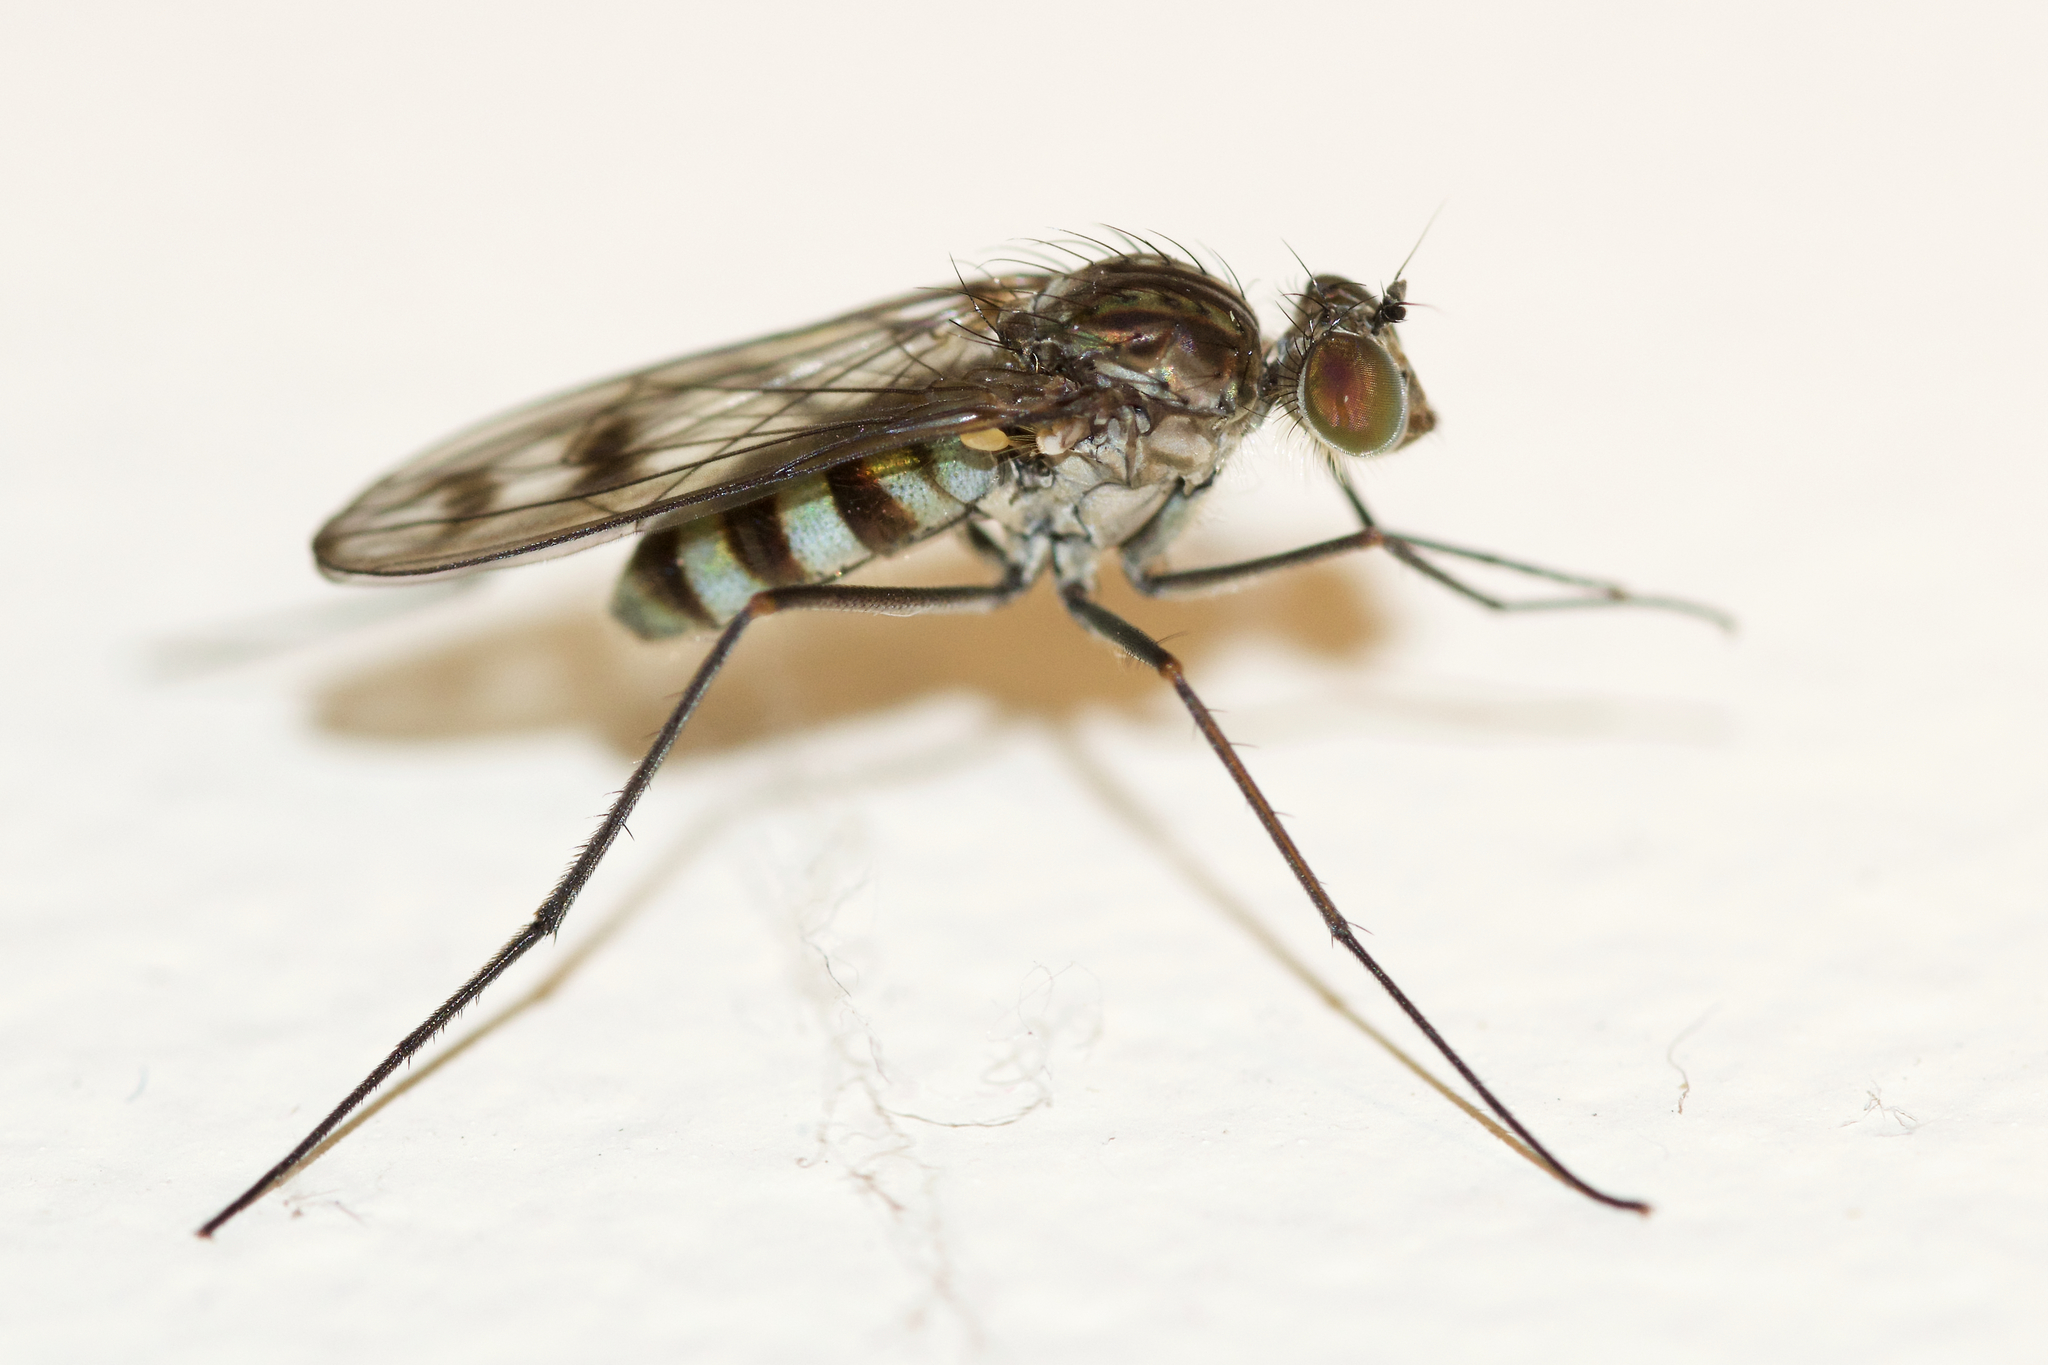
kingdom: Animalia
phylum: Arthropoda
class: Insecta
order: Diptera
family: Dolichopodidae
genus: Liancalus
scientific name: Liancalus genualis
